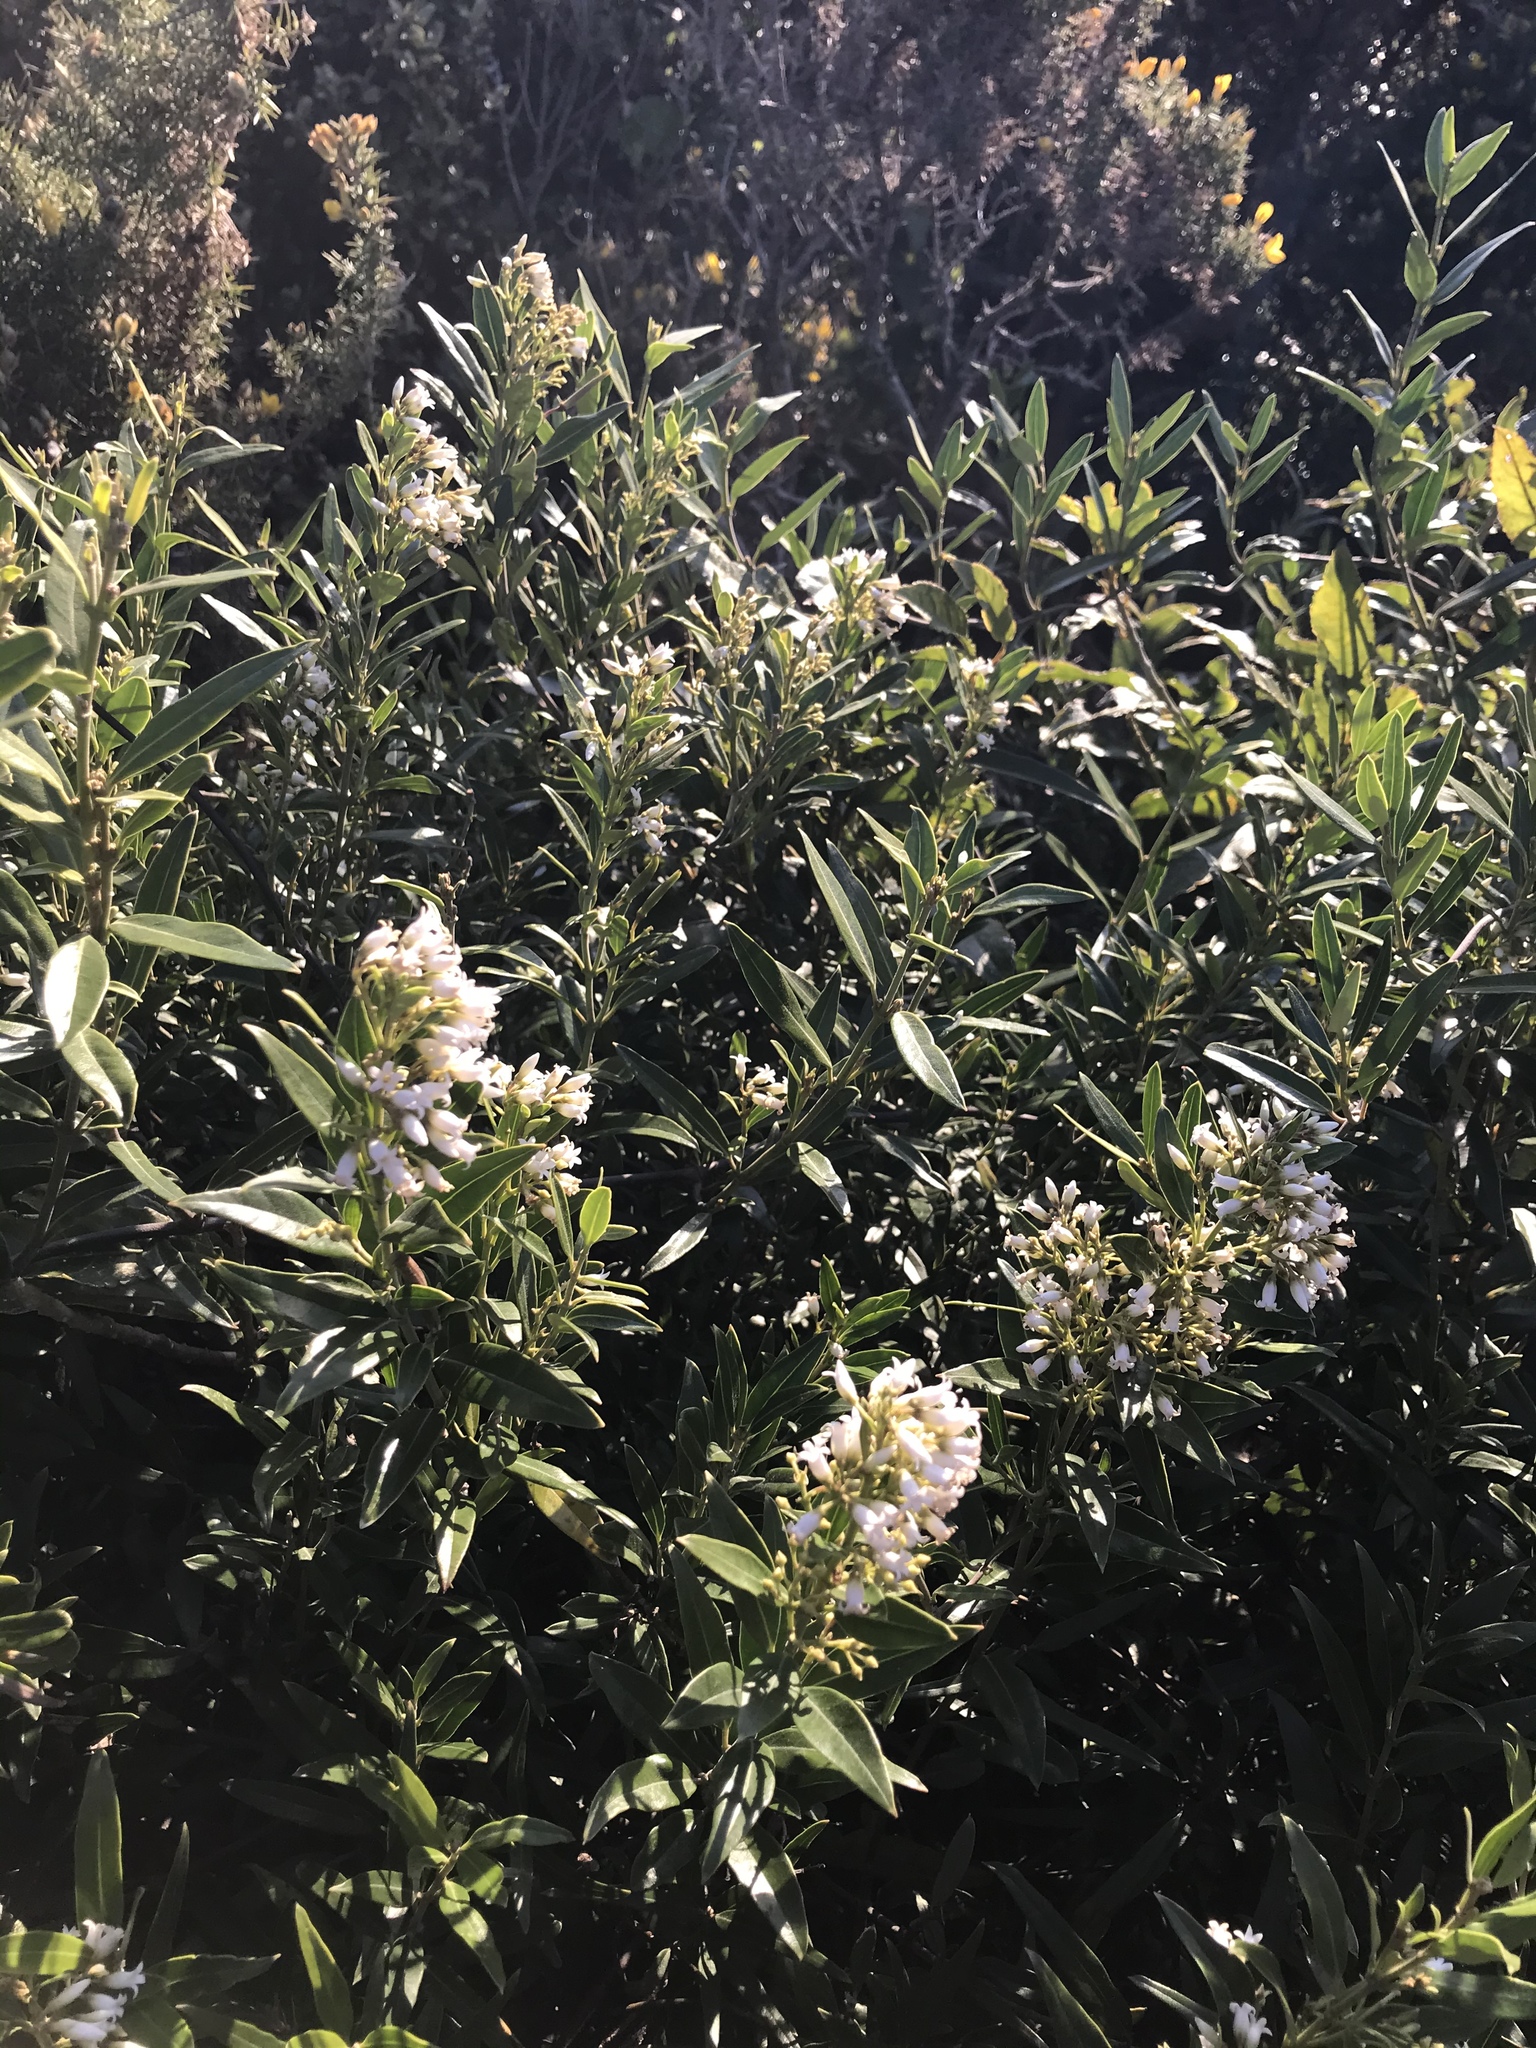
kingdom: Plantae
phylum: Tracheophyta
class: Magnoliopsida
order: Gentianales
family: Apocynaceae
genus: Parsonsia
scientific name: Parsonsia heterophylla
